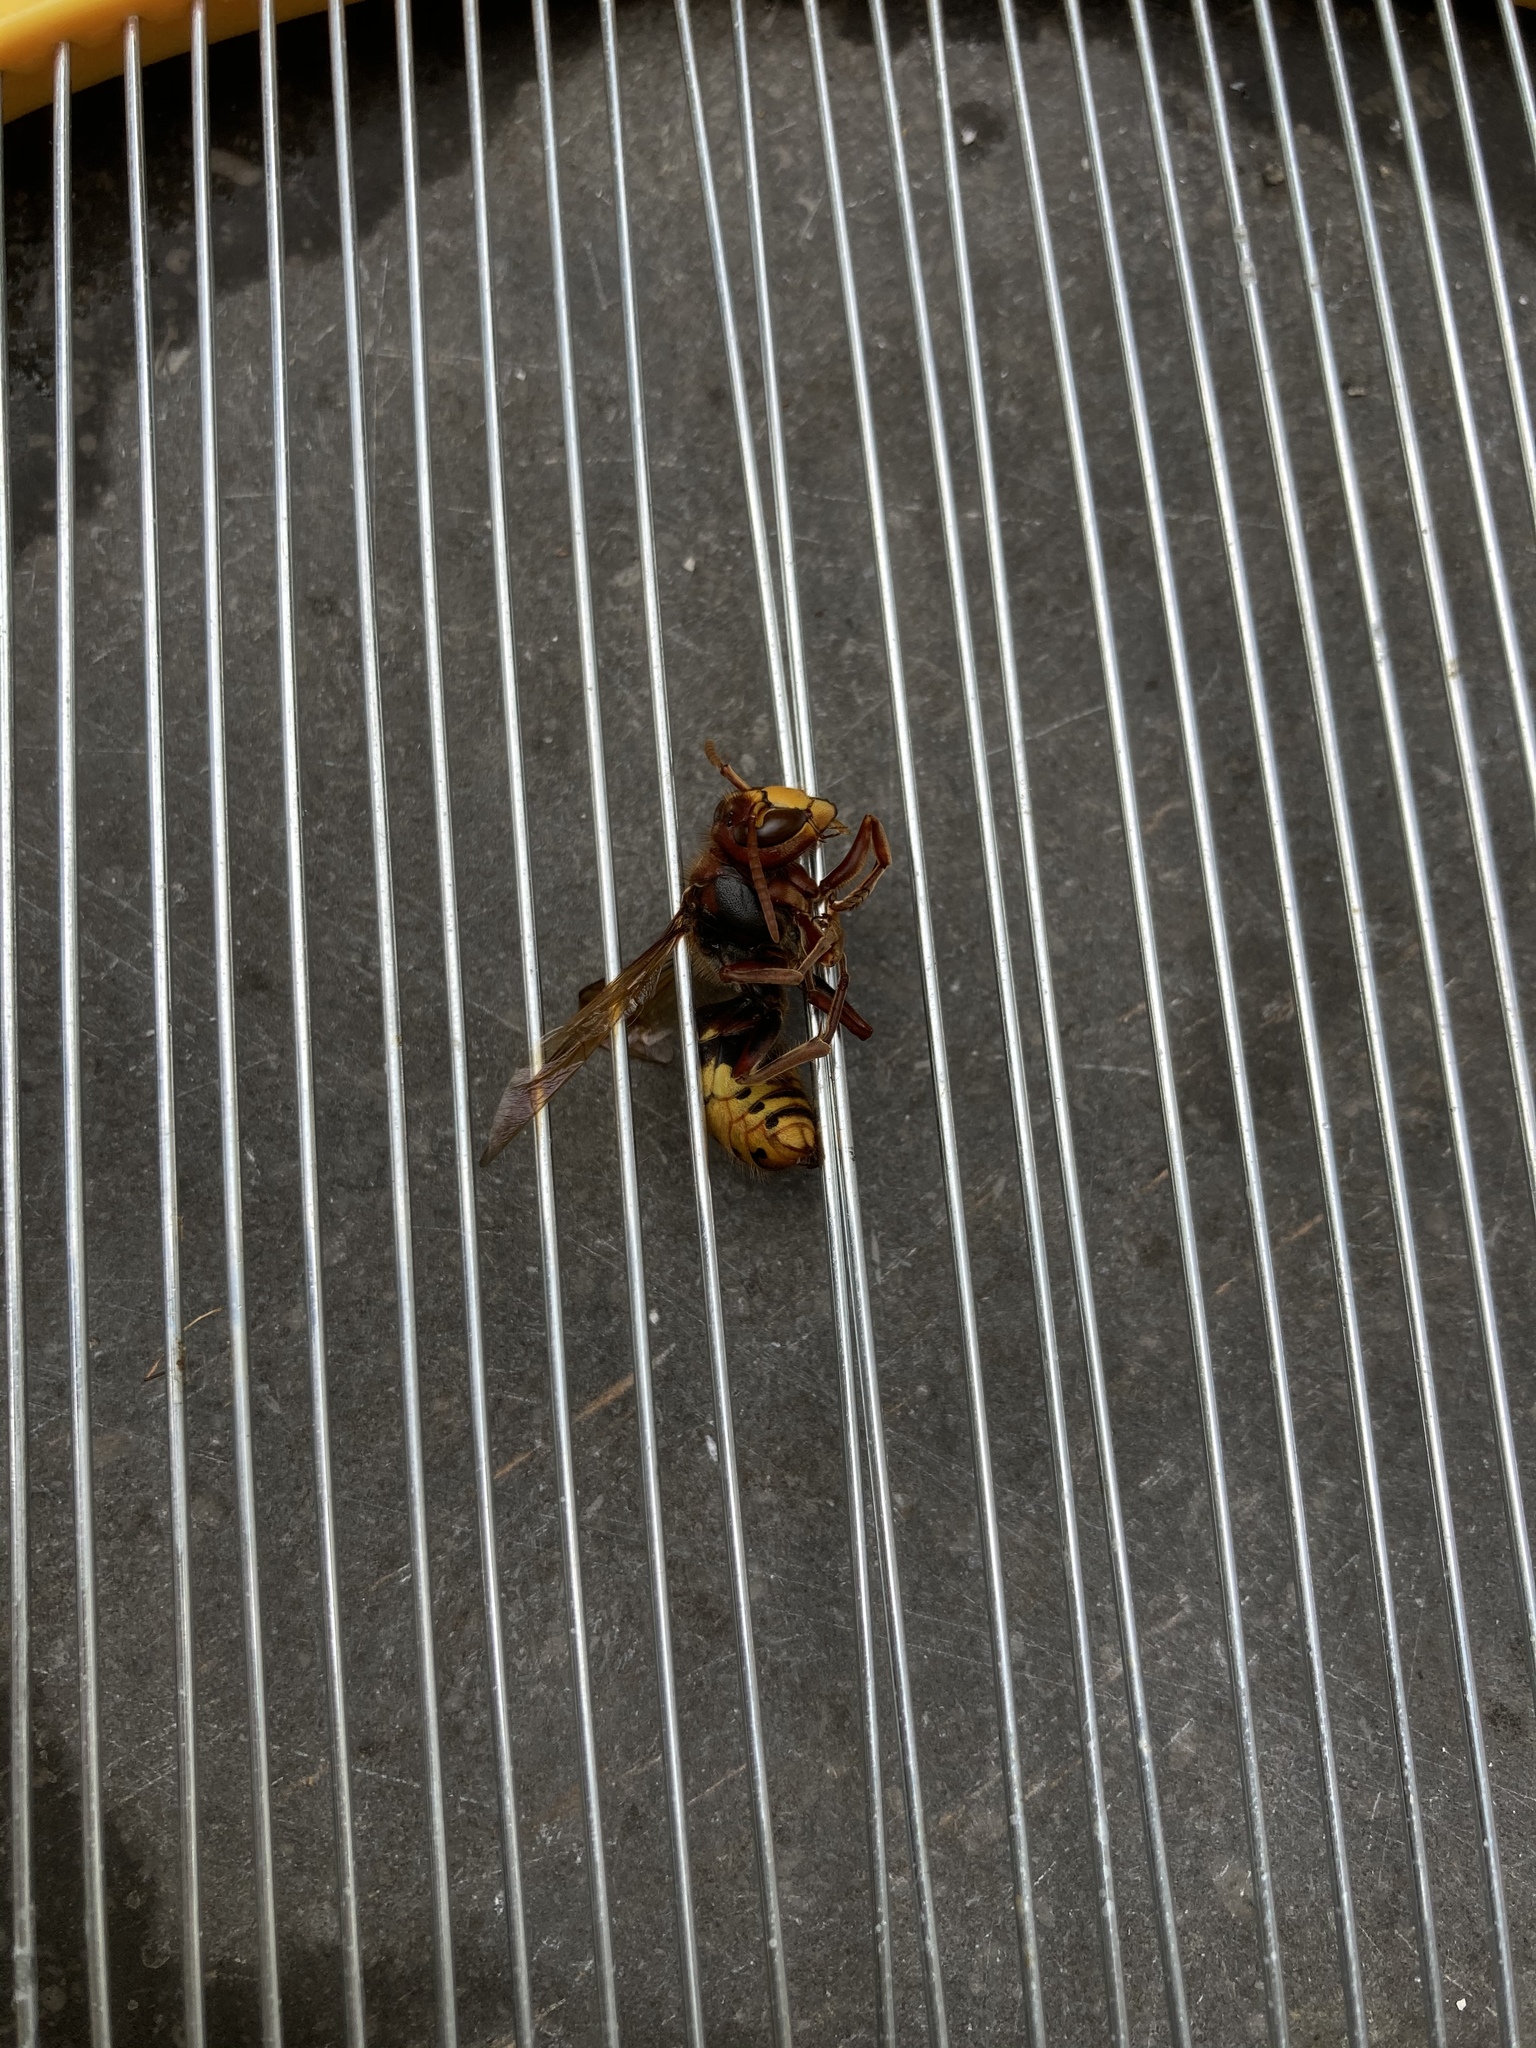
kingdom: Animalia
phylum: Arthropoda
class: Insecta
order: Hymenoptera
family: Vespidae
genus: Vespa
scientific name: Vespa crabro
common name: Hornet
